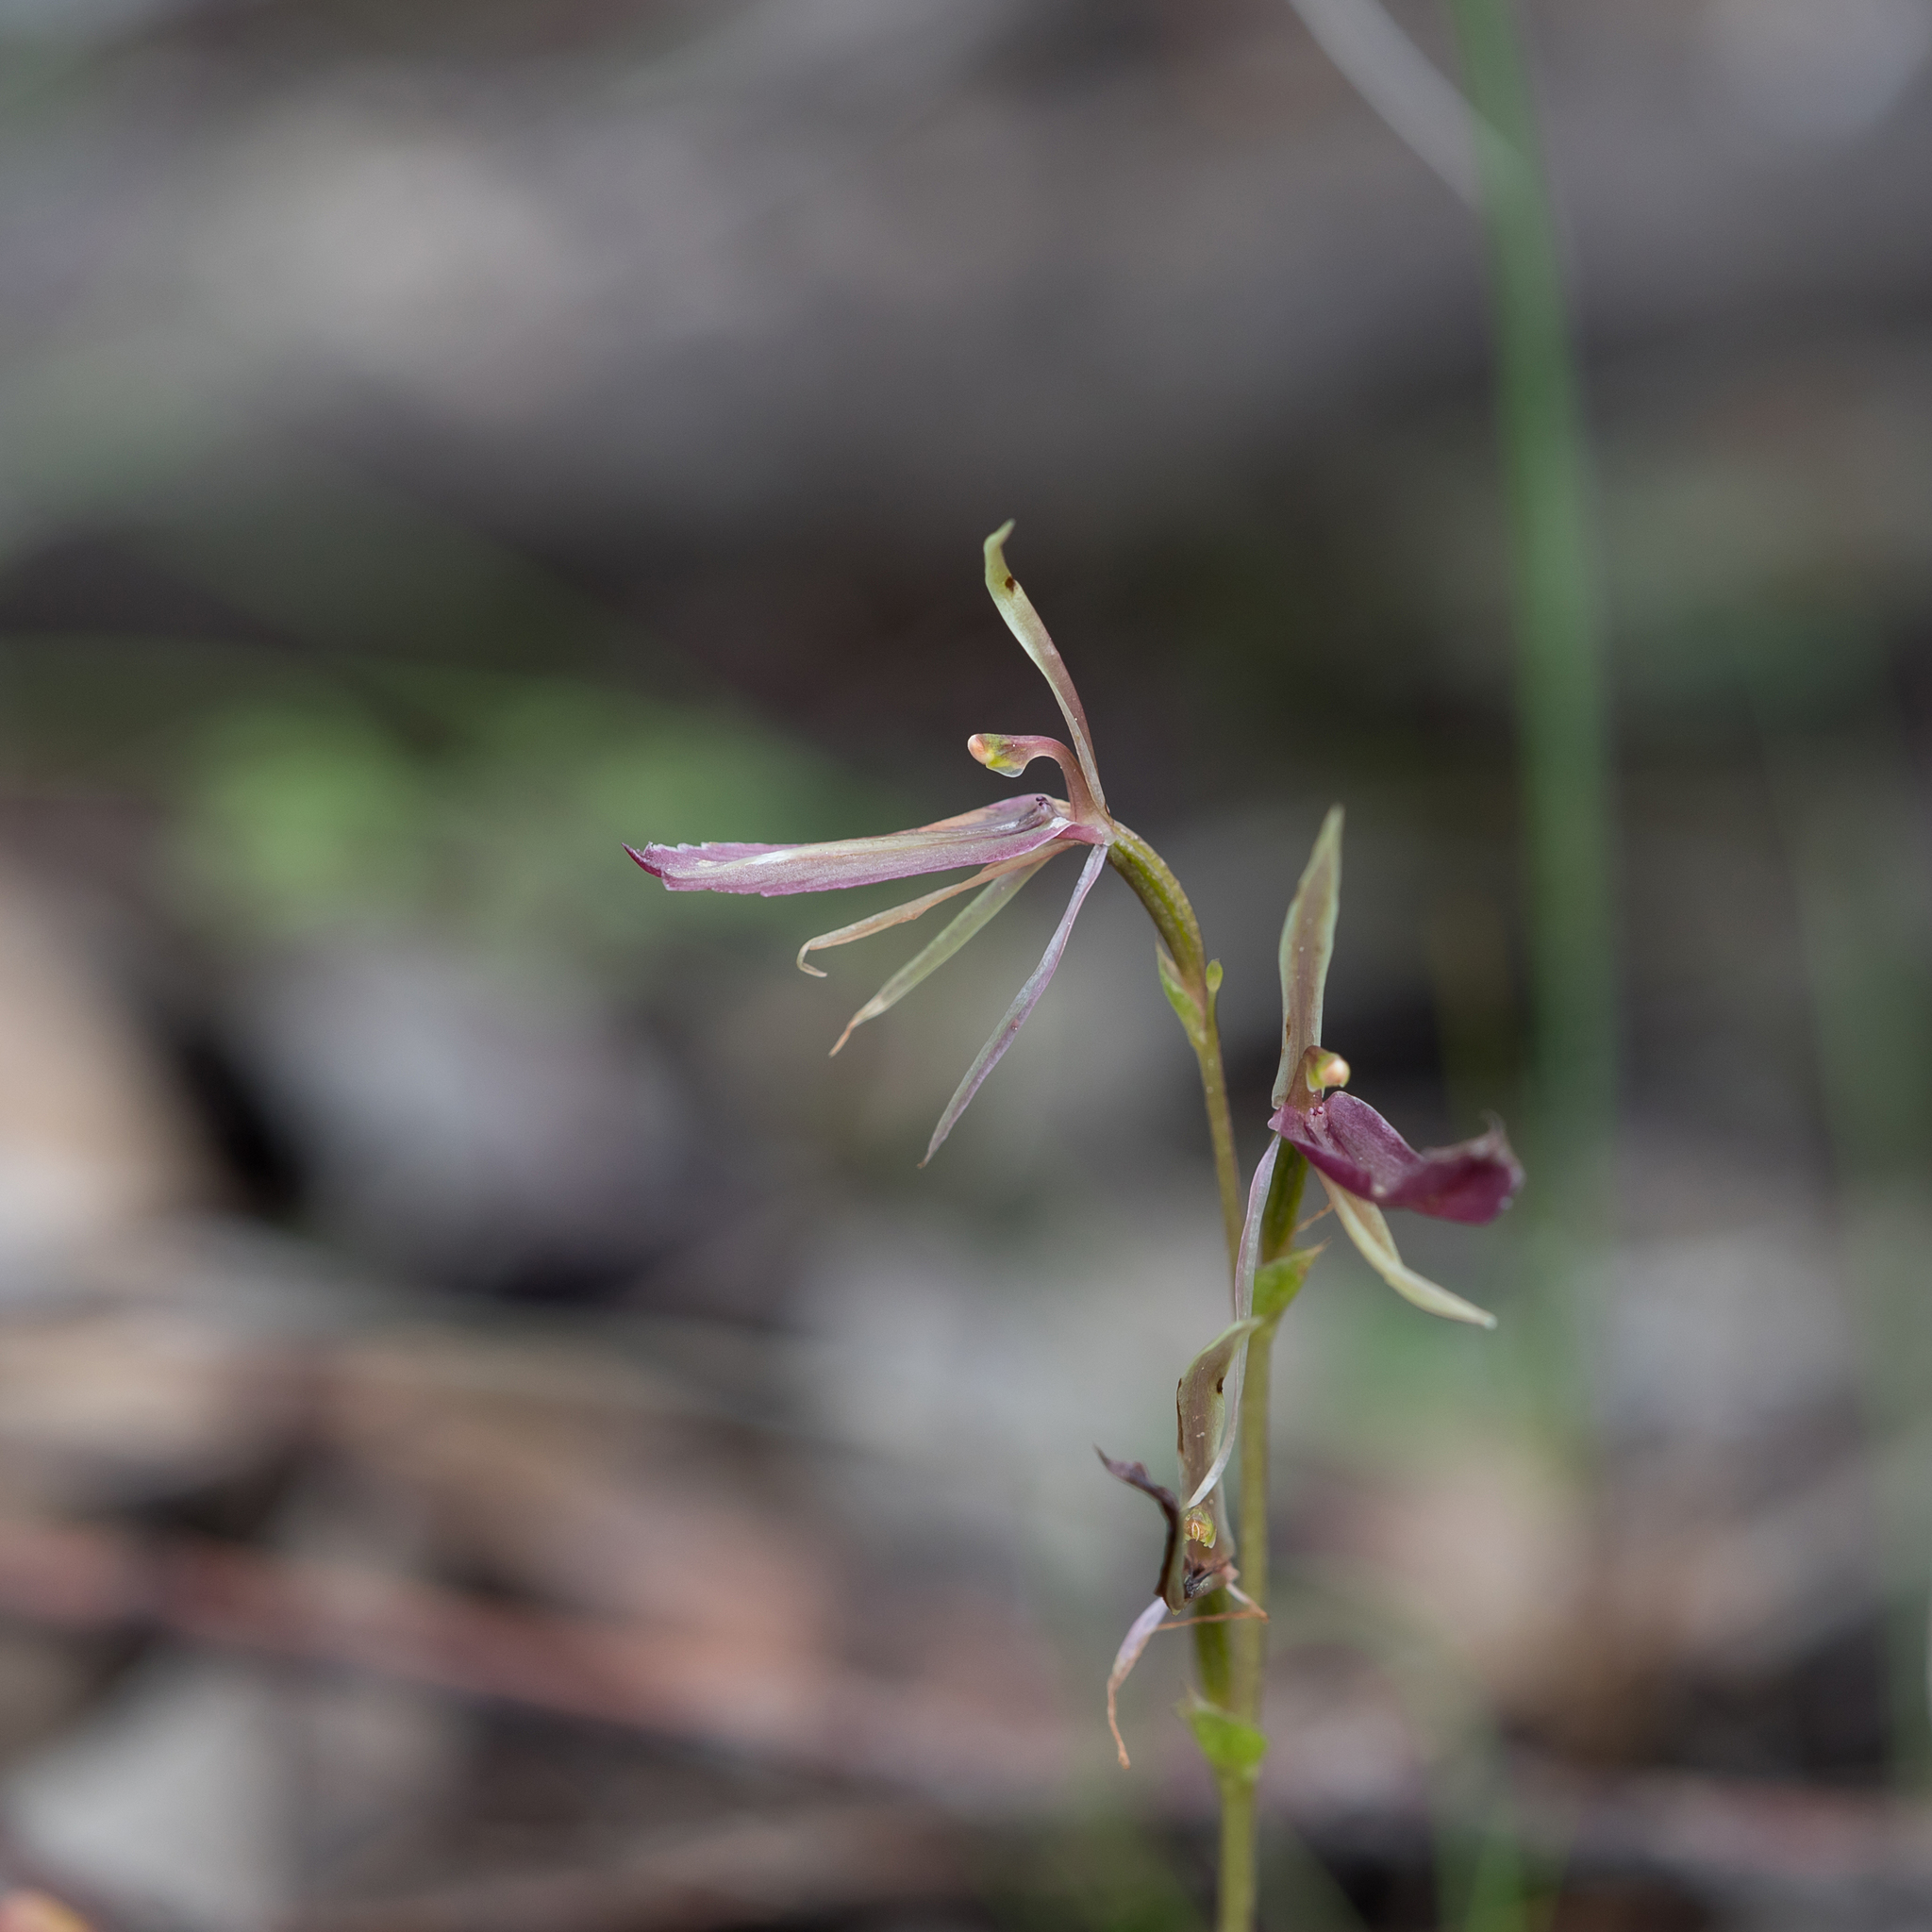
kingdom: Plantae
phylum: Tracheophyta
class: Liliopsida
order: Asparagales
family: Orchidaceae
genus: Cyrtostylis
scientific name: Cyrtostylis robusta
